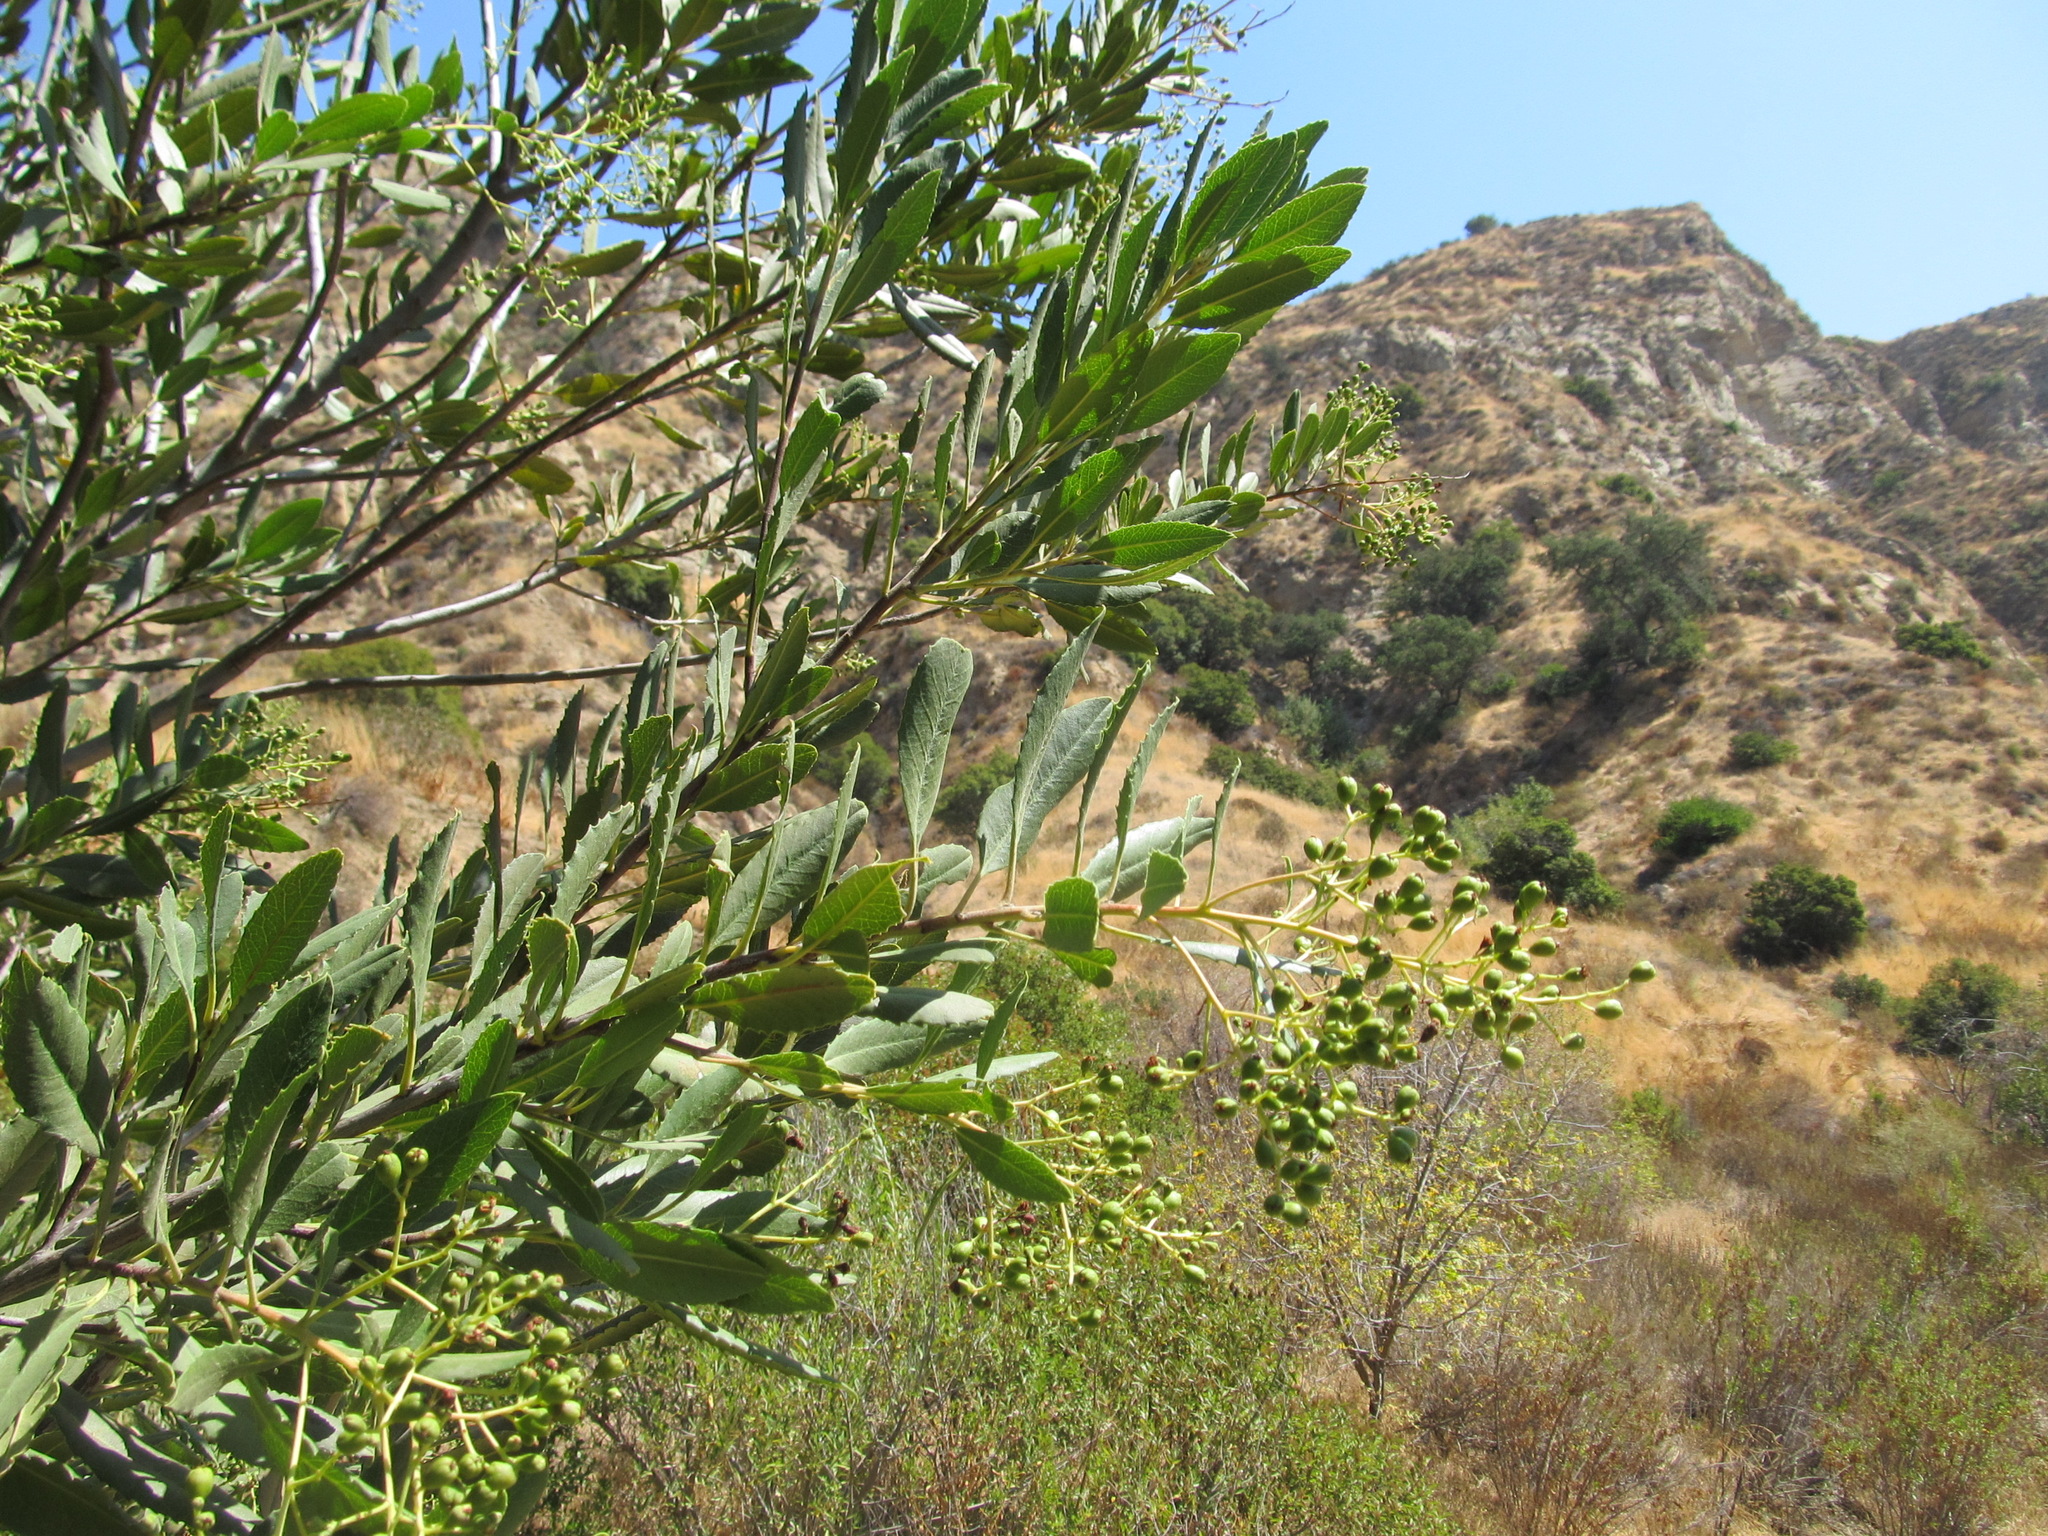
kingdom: Plantae
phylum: Tracheophyta
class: Magnoliopsida
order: Rosales
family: Rosaceae
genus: Heteromeles
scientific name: Heteromeles arbutifolia
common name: California-holly
